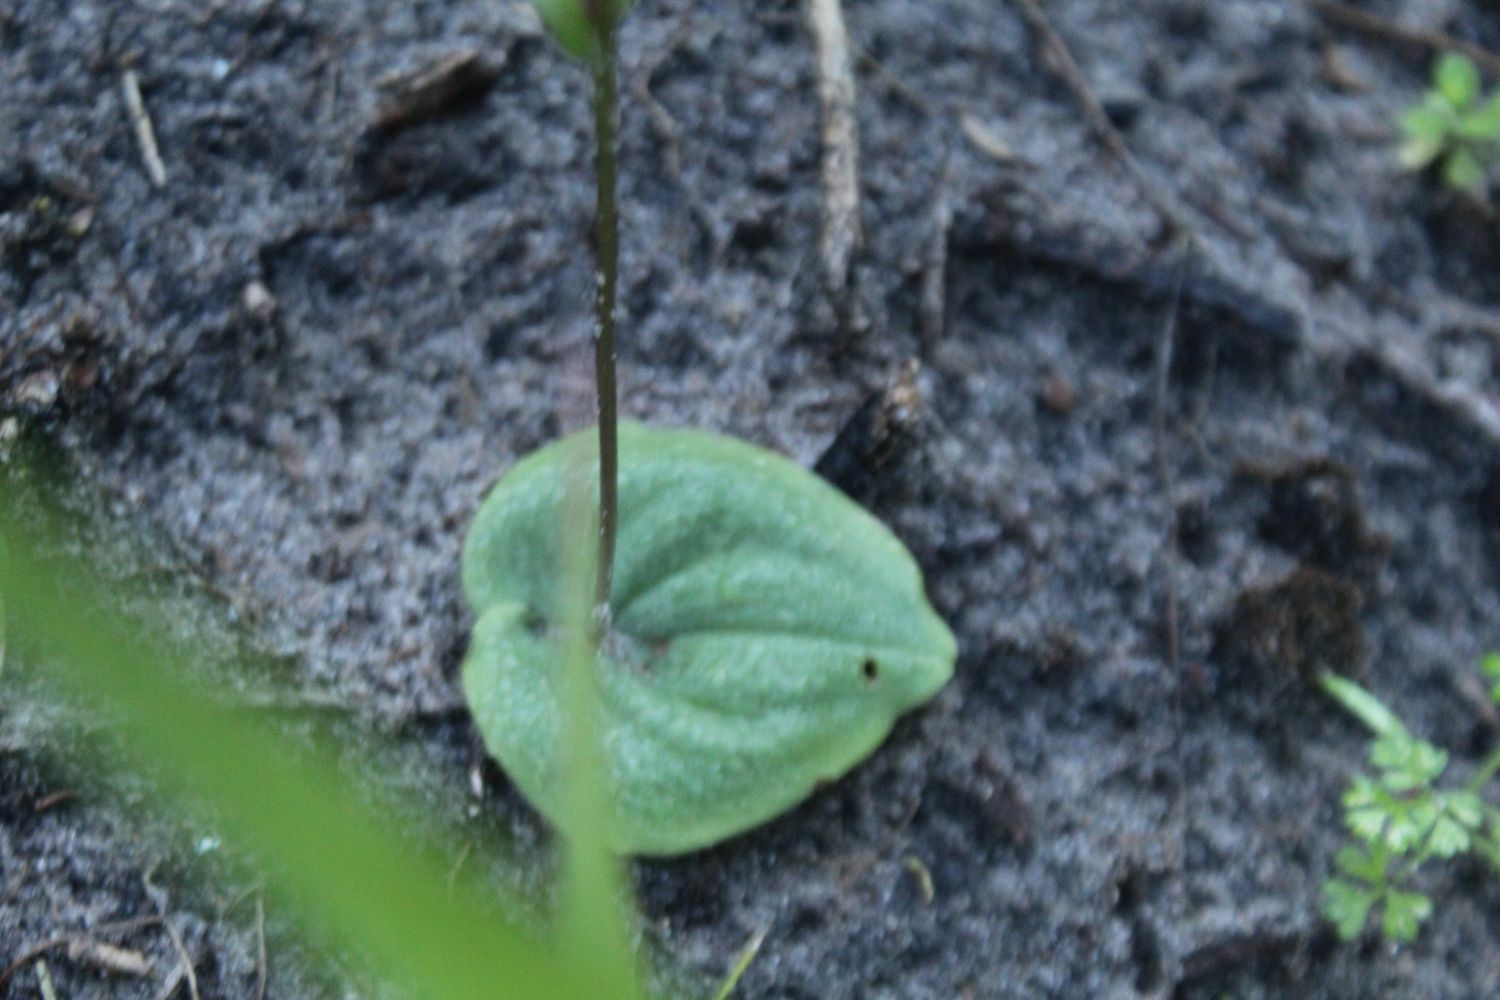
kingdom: Plantae
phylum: Tracheophyta
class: Liliopsida
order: Asparagales
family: Orchidaceae
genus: Cyrtostylis
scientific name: Cyrtostylis robusta
